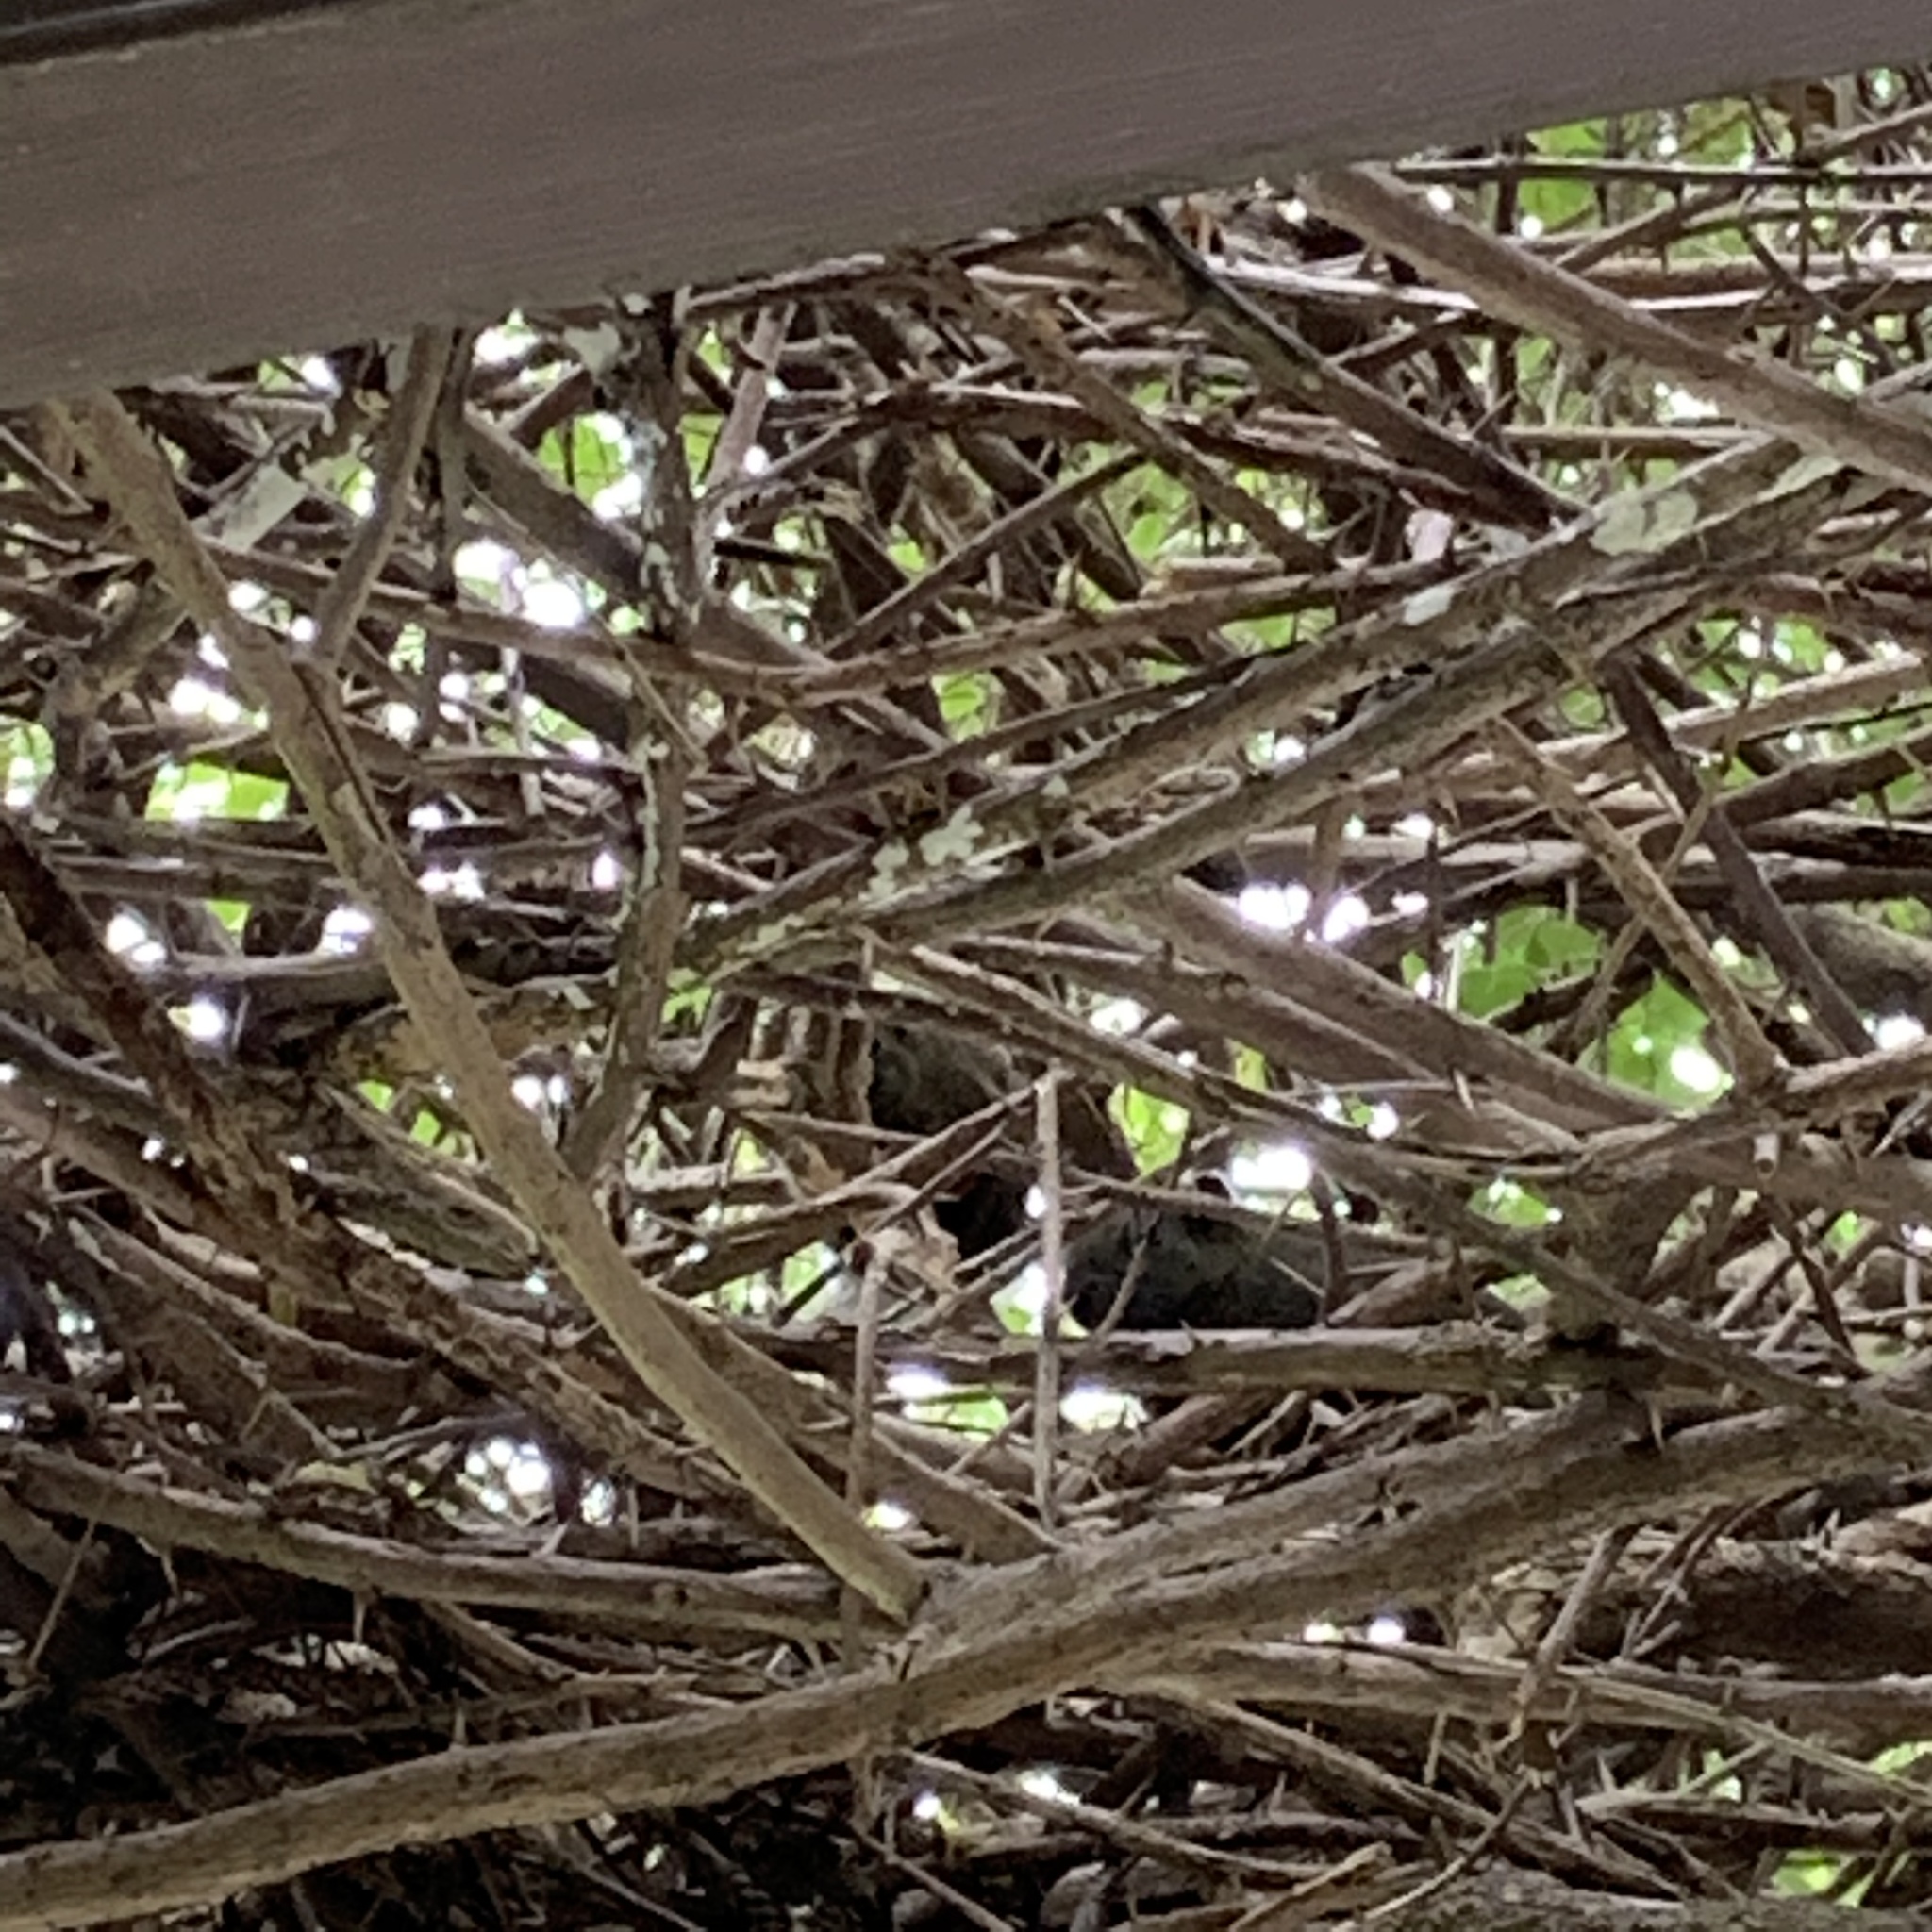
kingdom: Animalia
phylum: Chordata
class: Mammalia
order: Rodentia
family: Sciuridae
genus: Callosciurus
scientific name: Callosciurus erythraeus
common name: Pallas's squirrel
